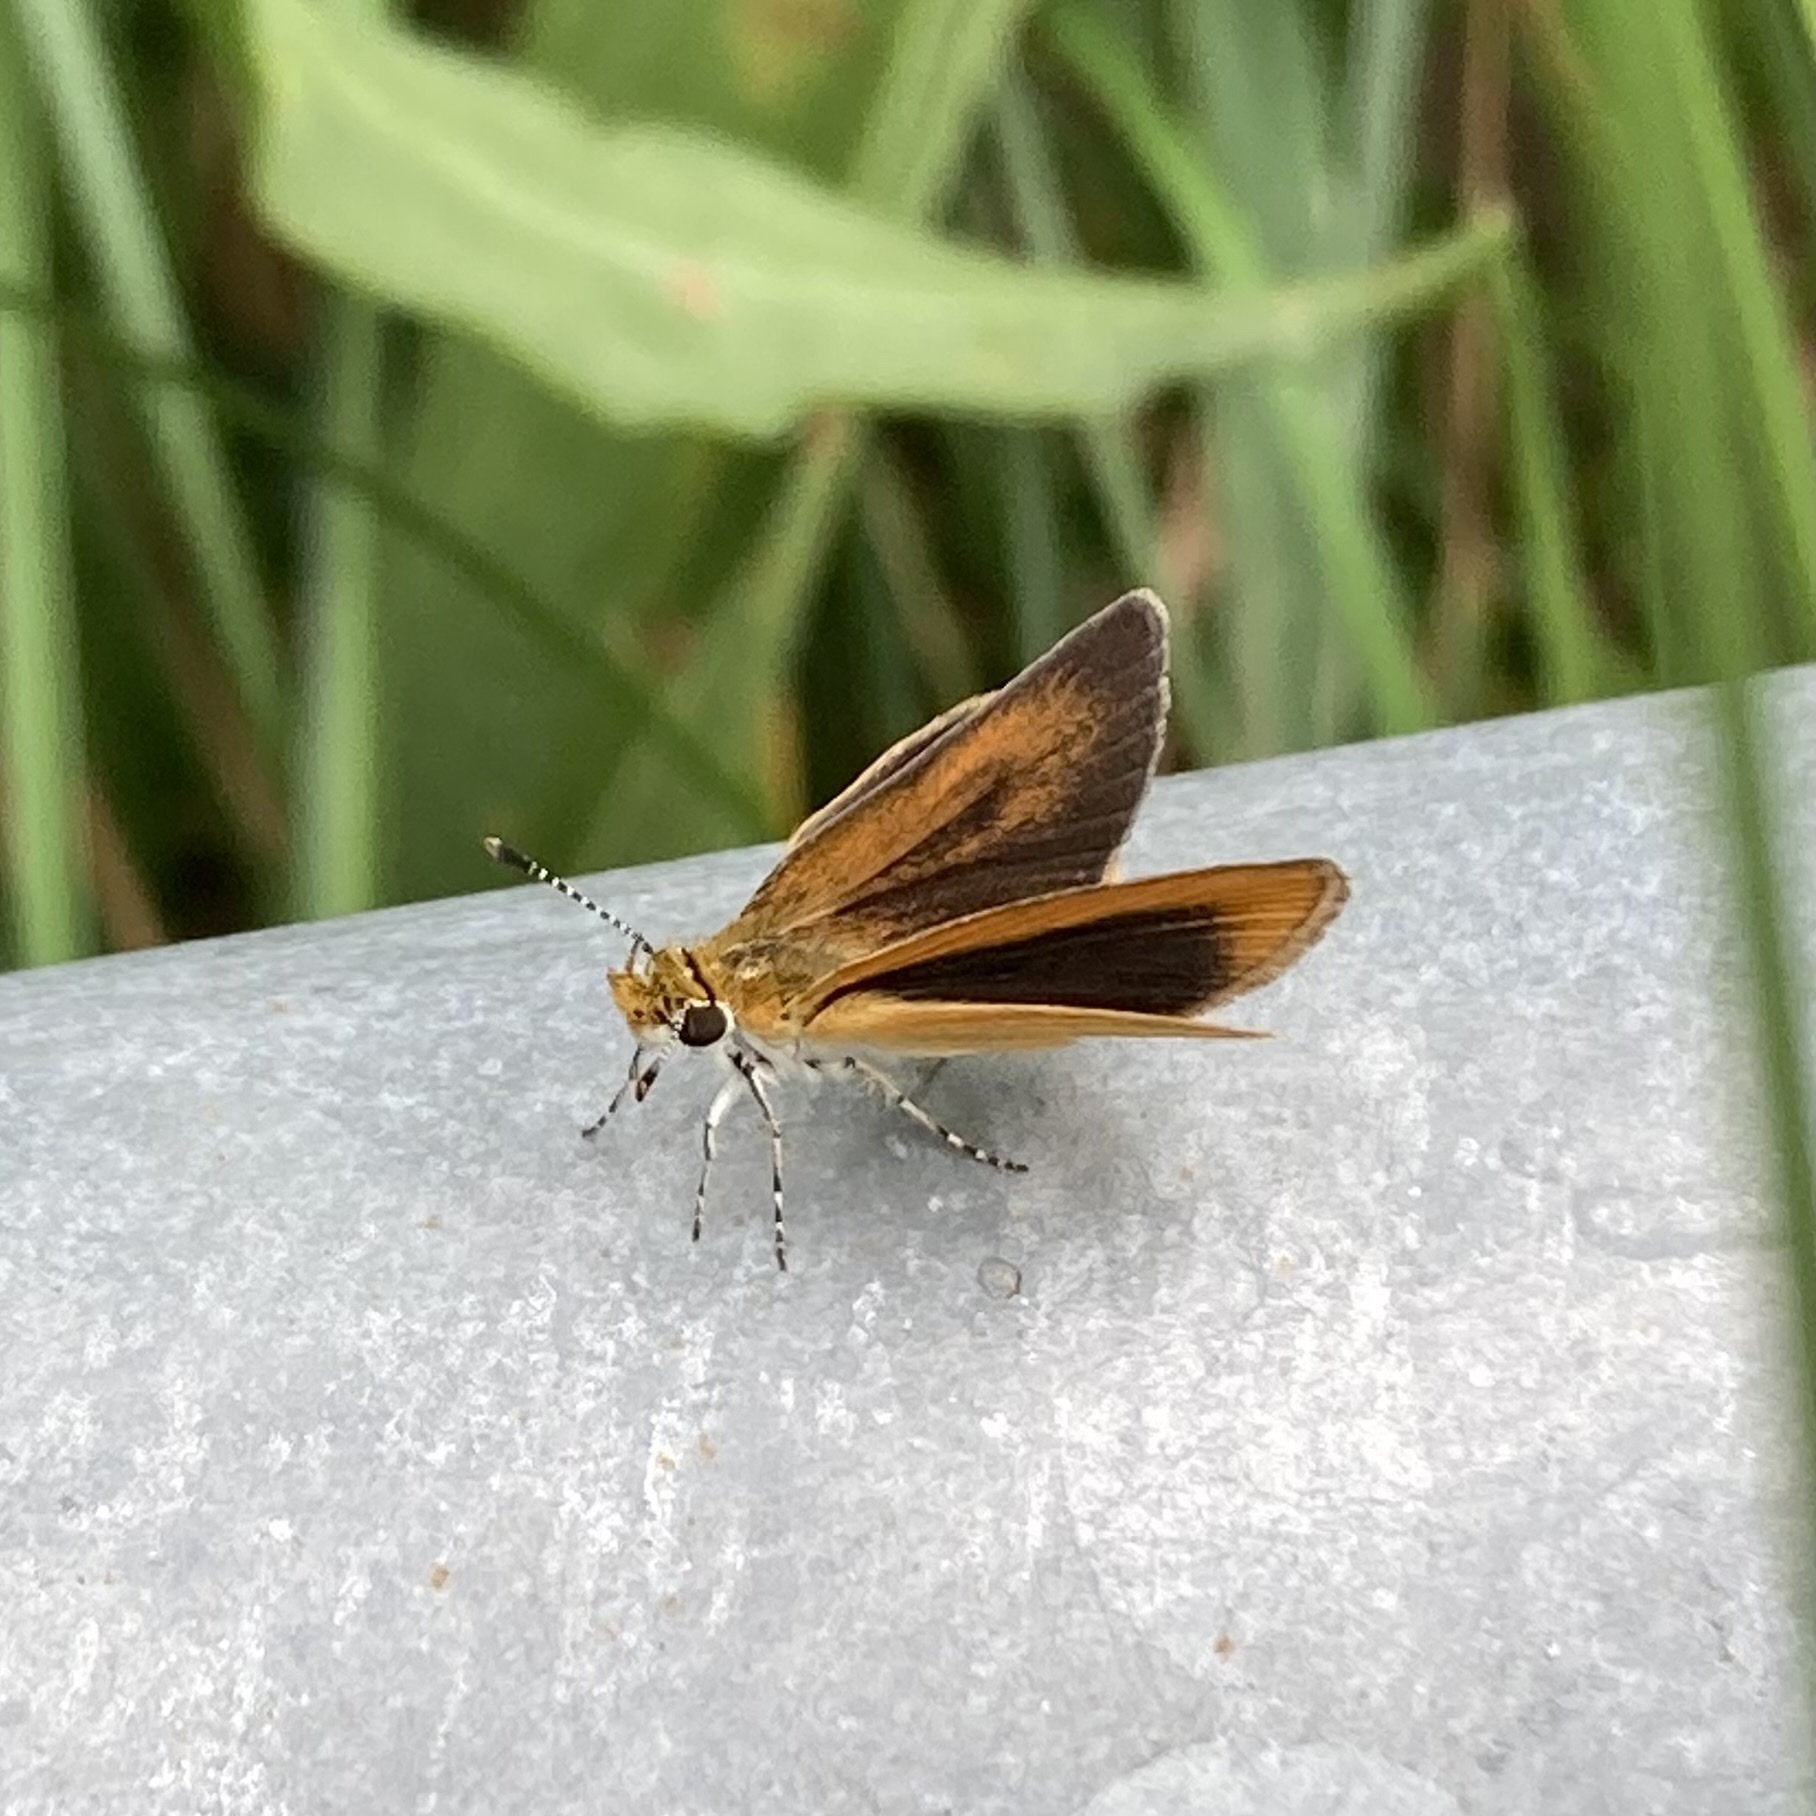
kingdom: Animalia
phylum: Arthropoda
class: Insecta
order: Lepidoptera
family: Hesperiidae
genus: Ancyloxypha
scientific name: Ancyloxypha numitor
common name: Least skipper
